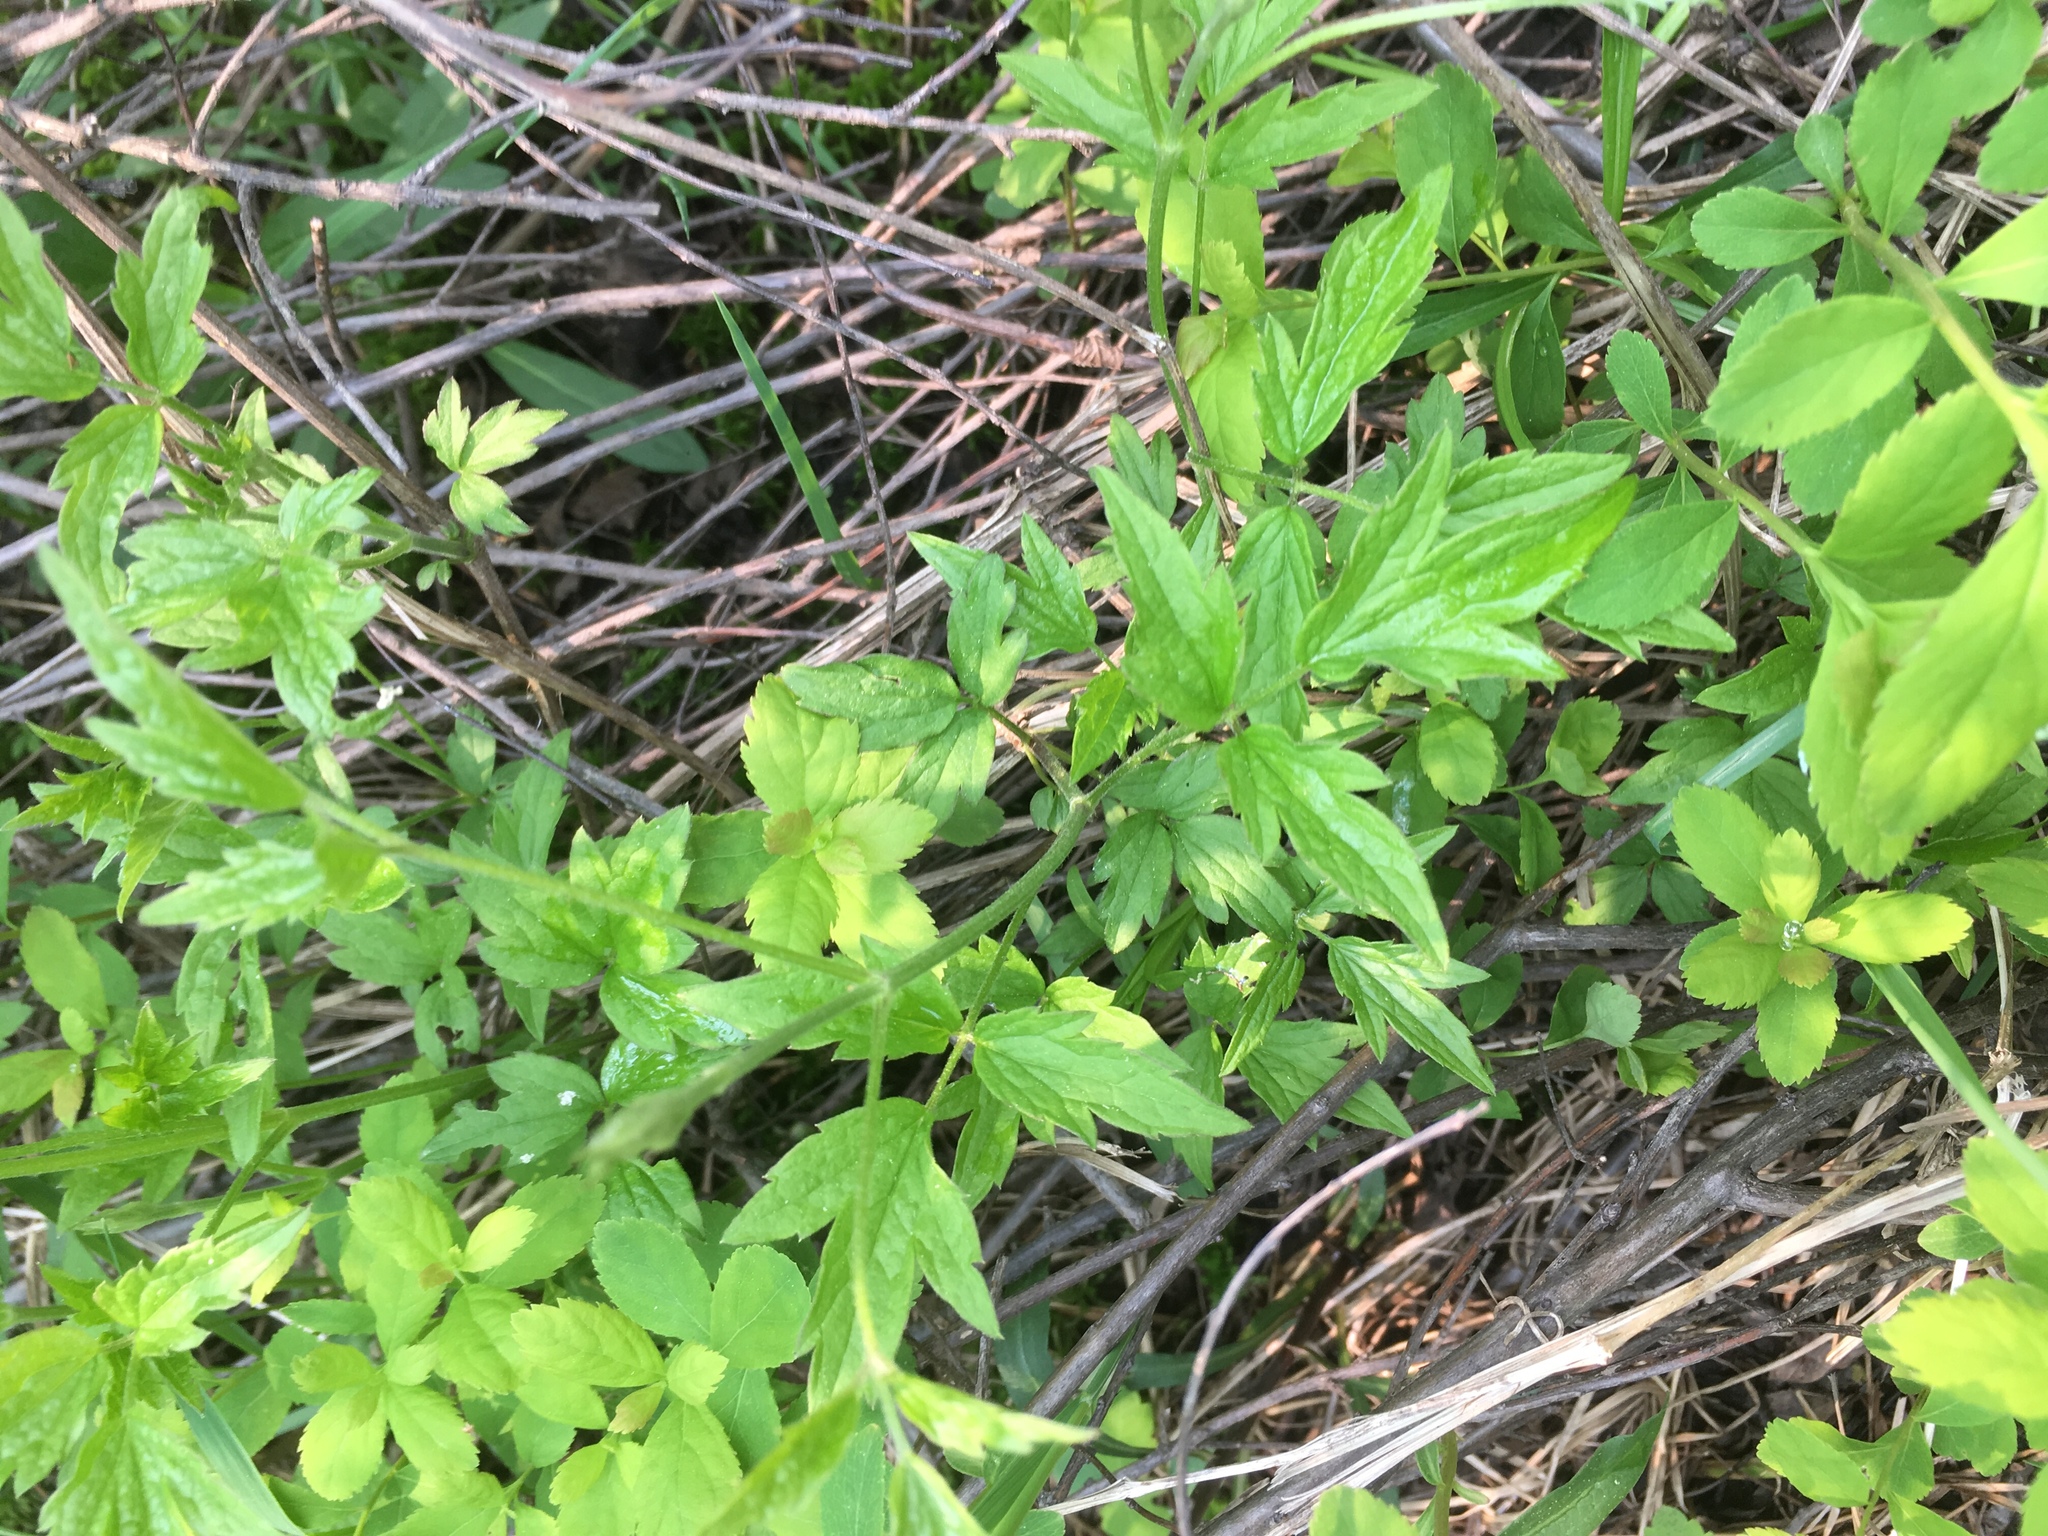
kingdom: Plantae
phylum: Tracheophyta
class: Magnoliopsida
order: Ranunculales
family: Ranunculaceae
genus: Clematis
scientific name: Clematis virginiana
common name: Virgin's-bower
